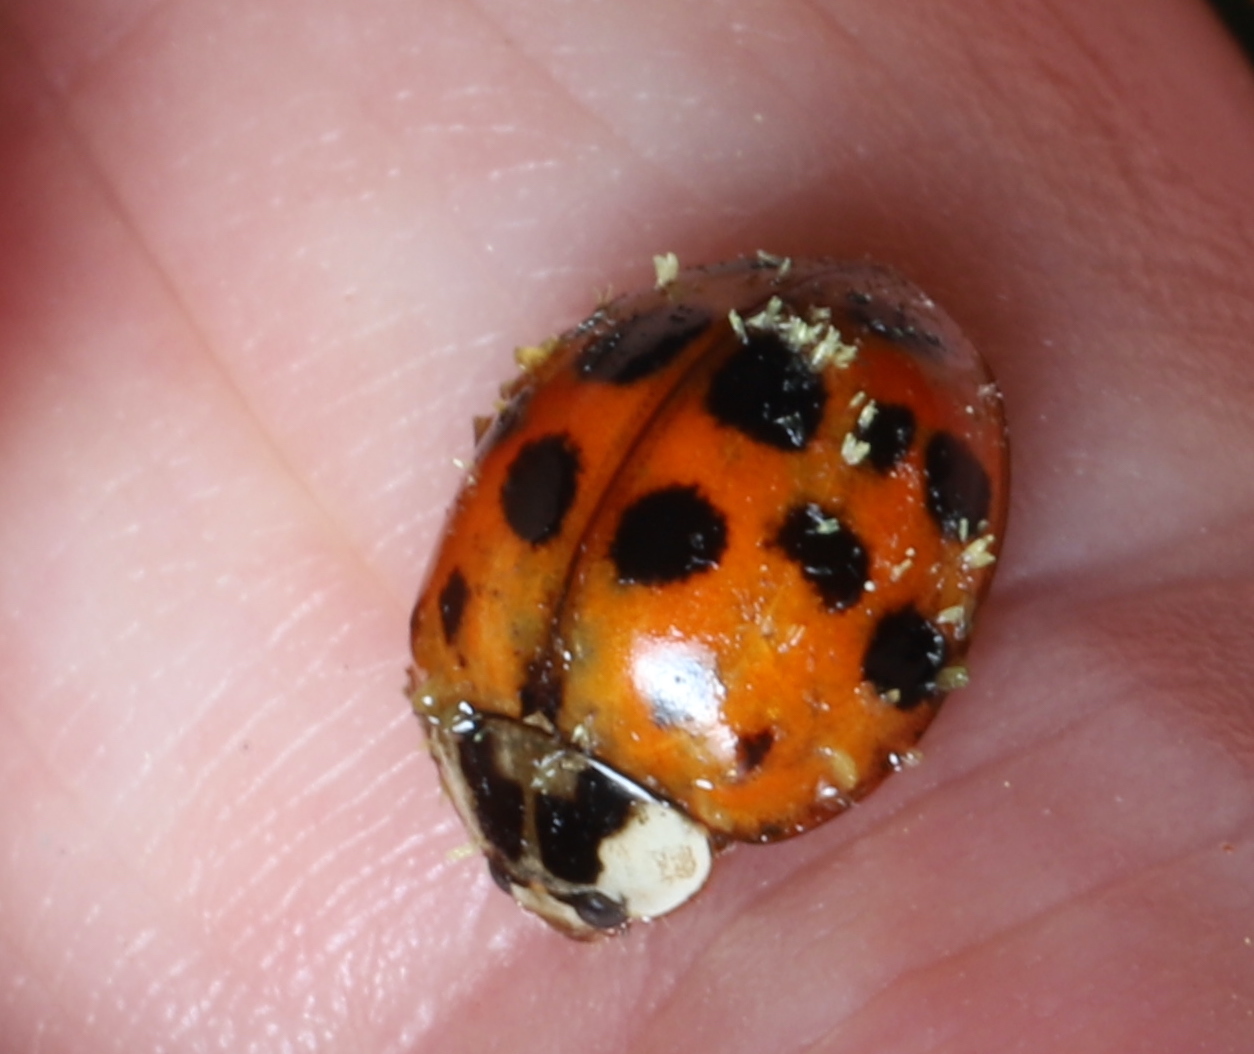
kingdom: Fungi
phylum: Ascomycota
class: Laboulbeniomycetes
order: Laboulbeniales
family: Laboulbeniaceae
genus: Hesperomyces
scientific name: Hesperomyces harmoniae
